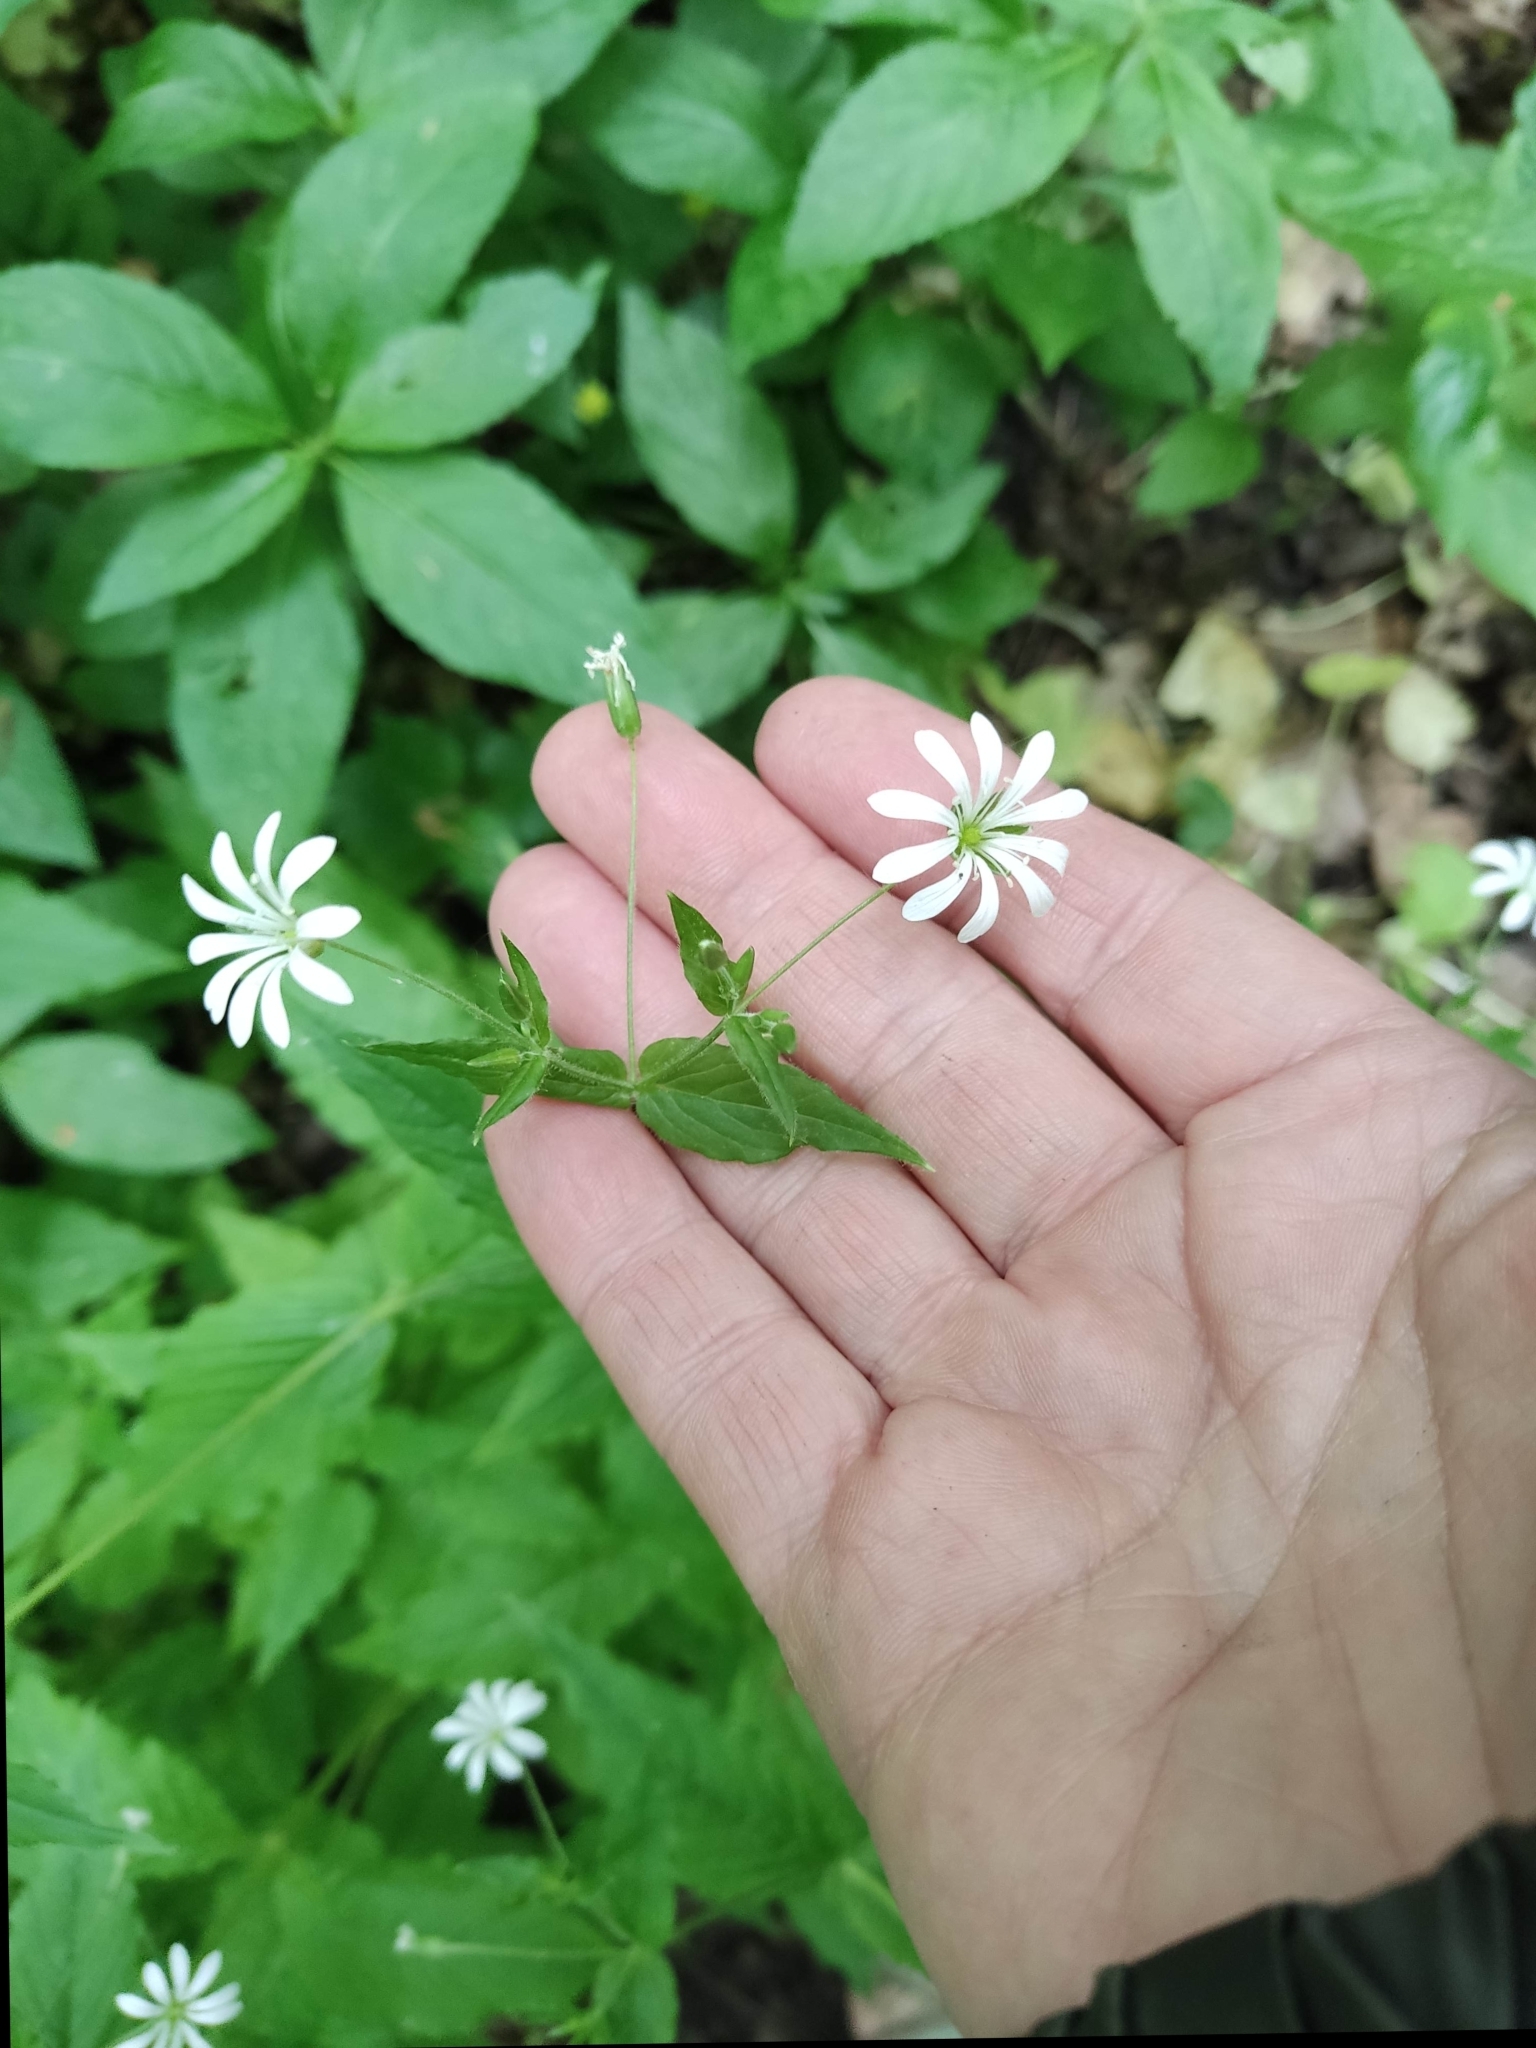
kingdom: Plantae
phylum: Tracheophyta
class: Magnoliopsida
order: Caryophyllales
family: Caryophyllaceae
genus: Stellaria
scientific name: Stellaria nemorum
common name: Wood stitchwort
